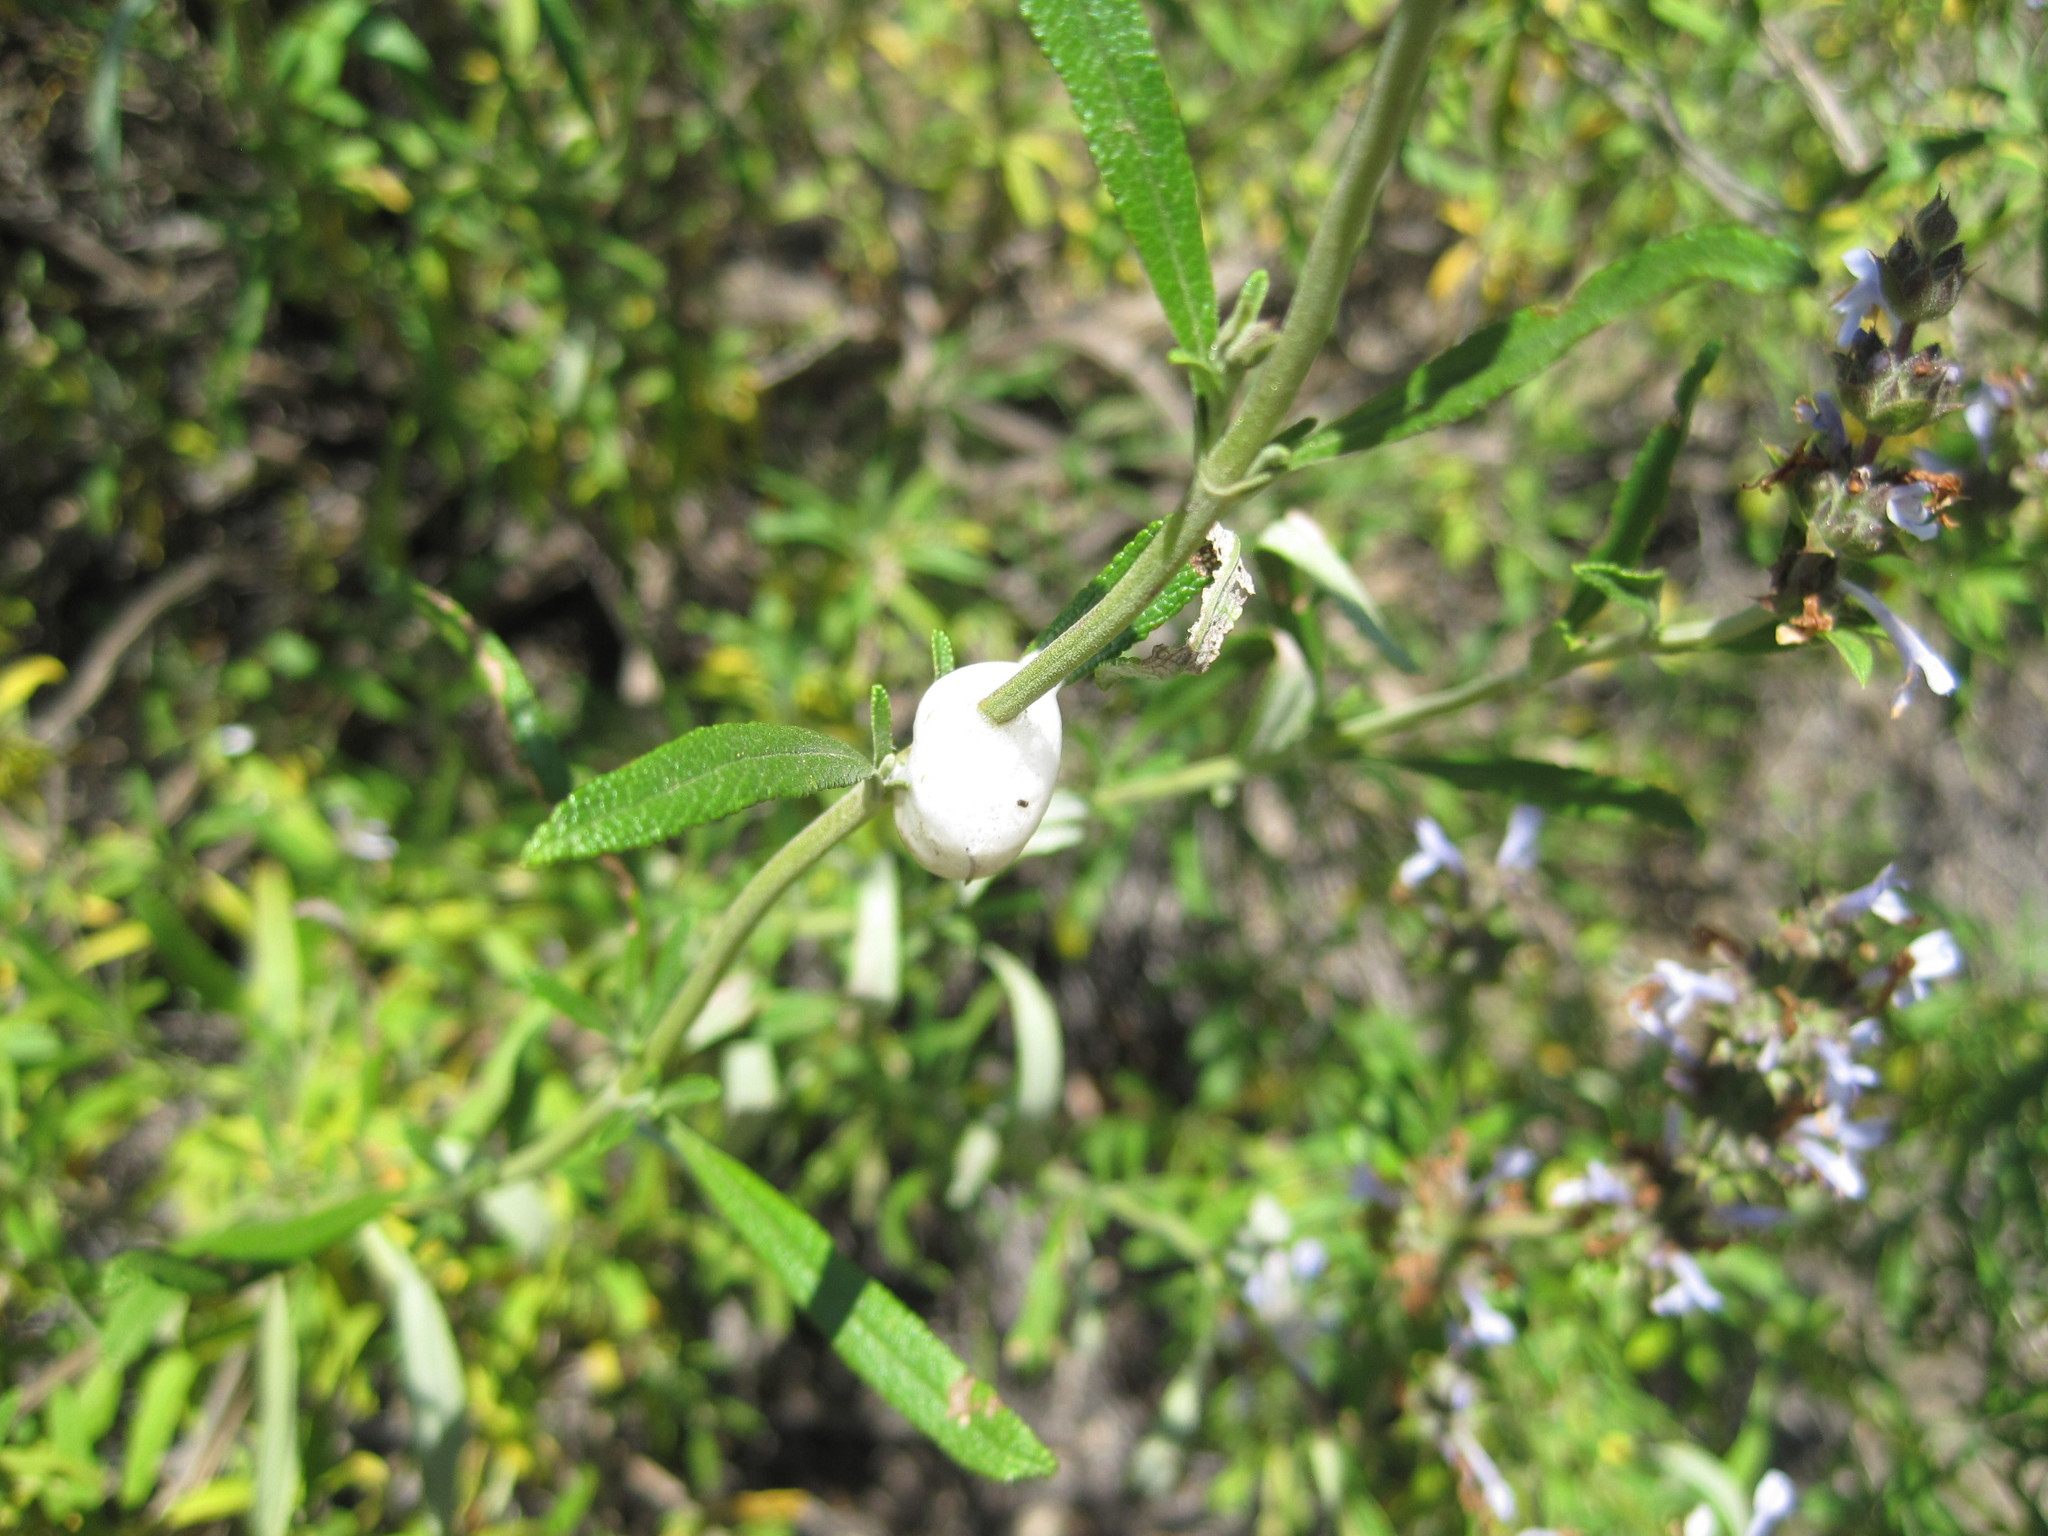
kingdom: Plantae
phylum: Tracheophyta
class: Magnoliopsida
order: Lamiales
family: Lamiaceae
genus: Salvia
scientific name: Salvia mellifera
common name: Black sage
